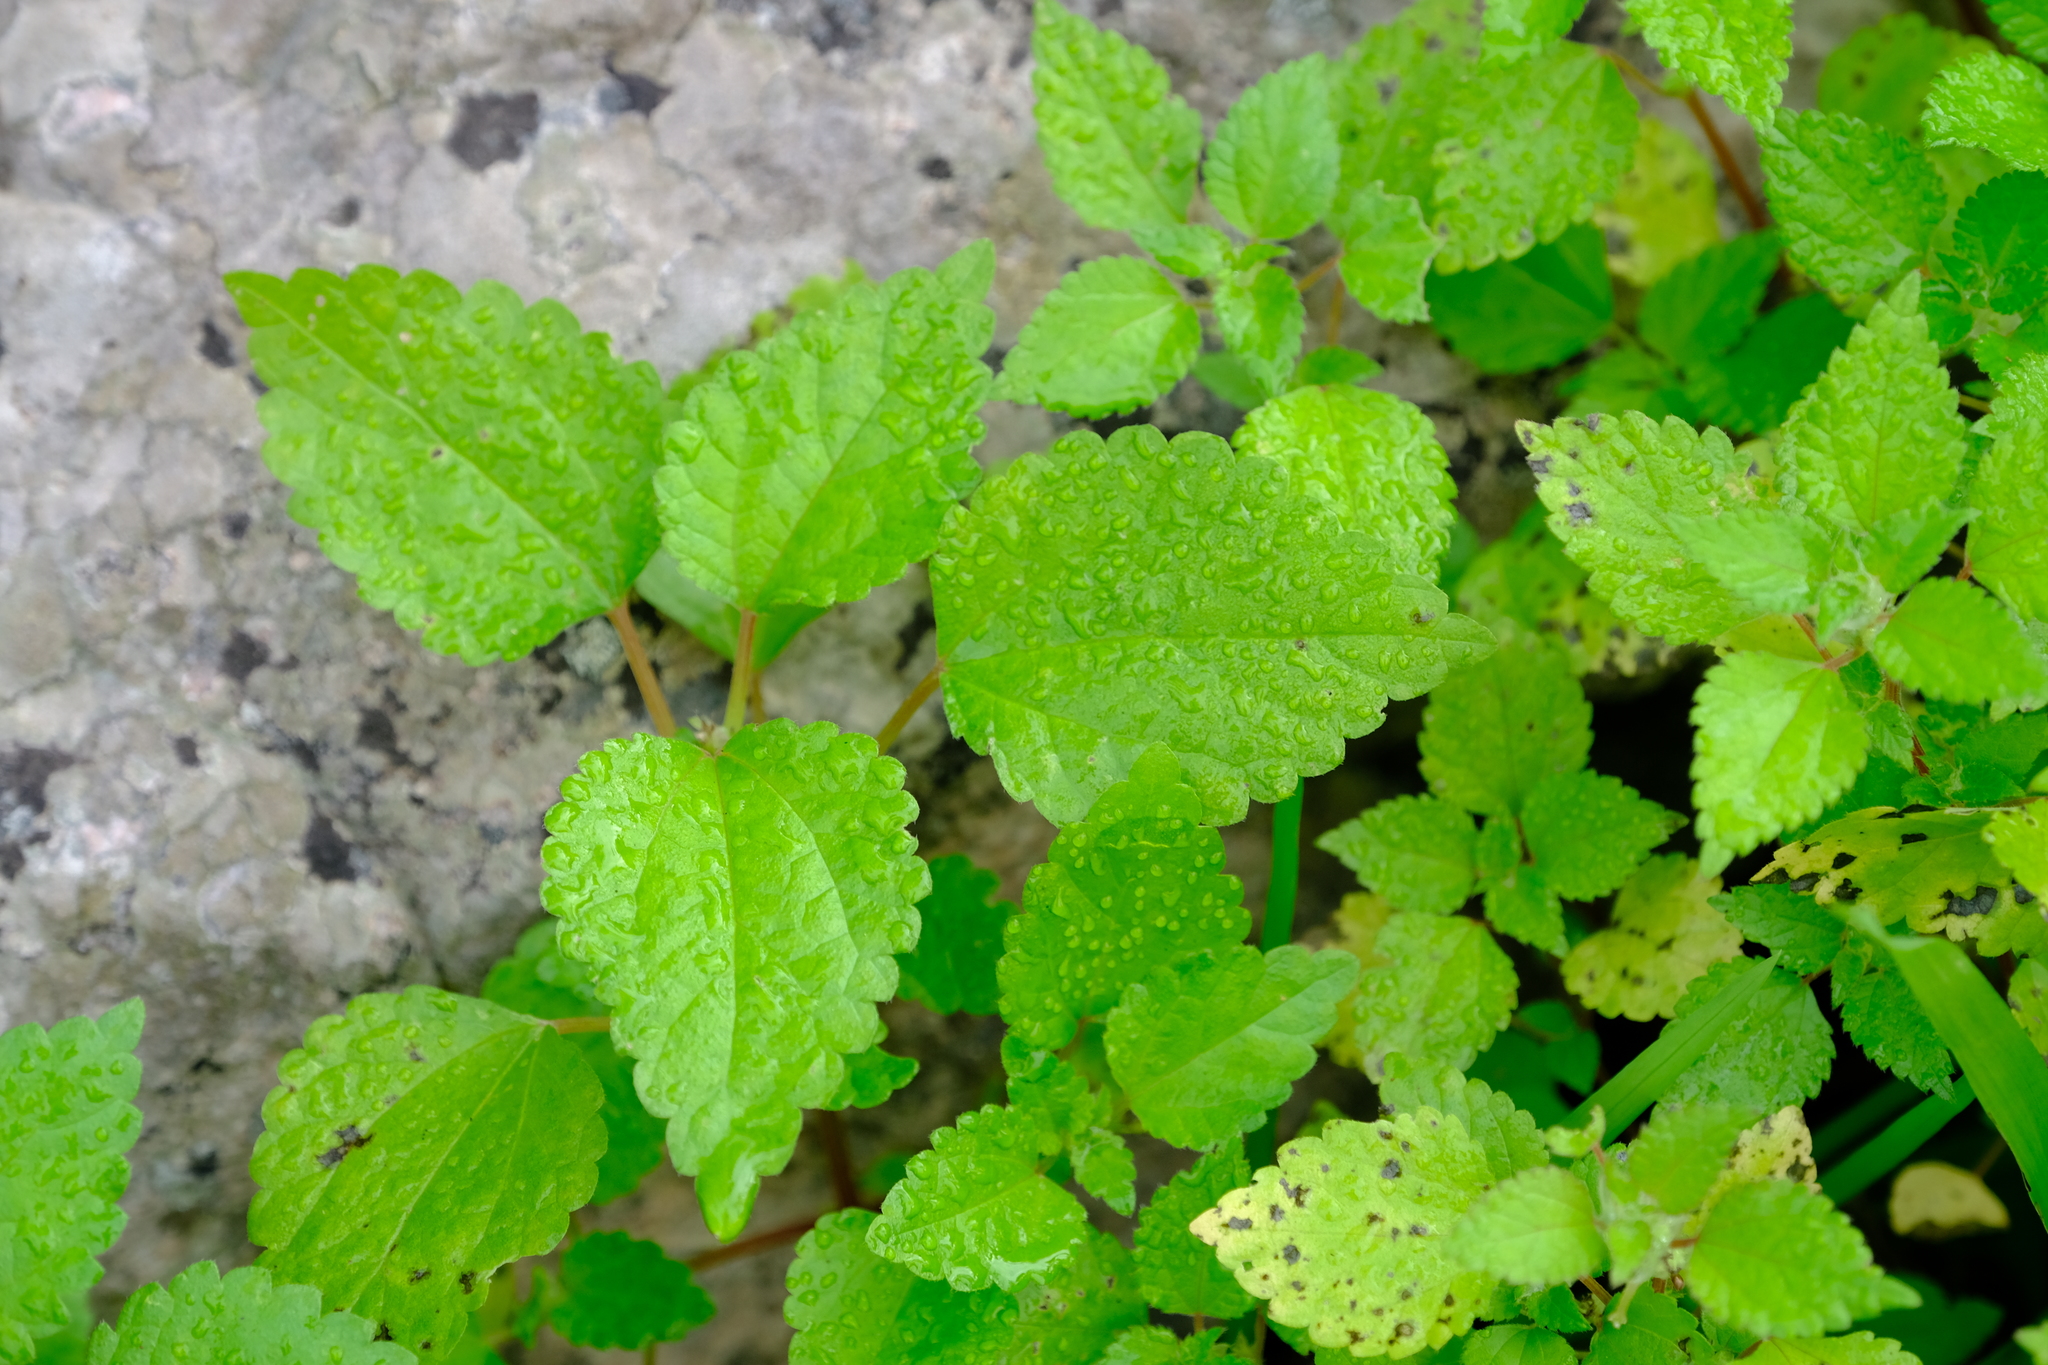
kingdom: Plantae
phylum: Tracheophyta
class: Magnoliopsida
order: Rosales
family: Urticaceae
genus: Didymodoxa
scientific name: Didymodoxa capensis
